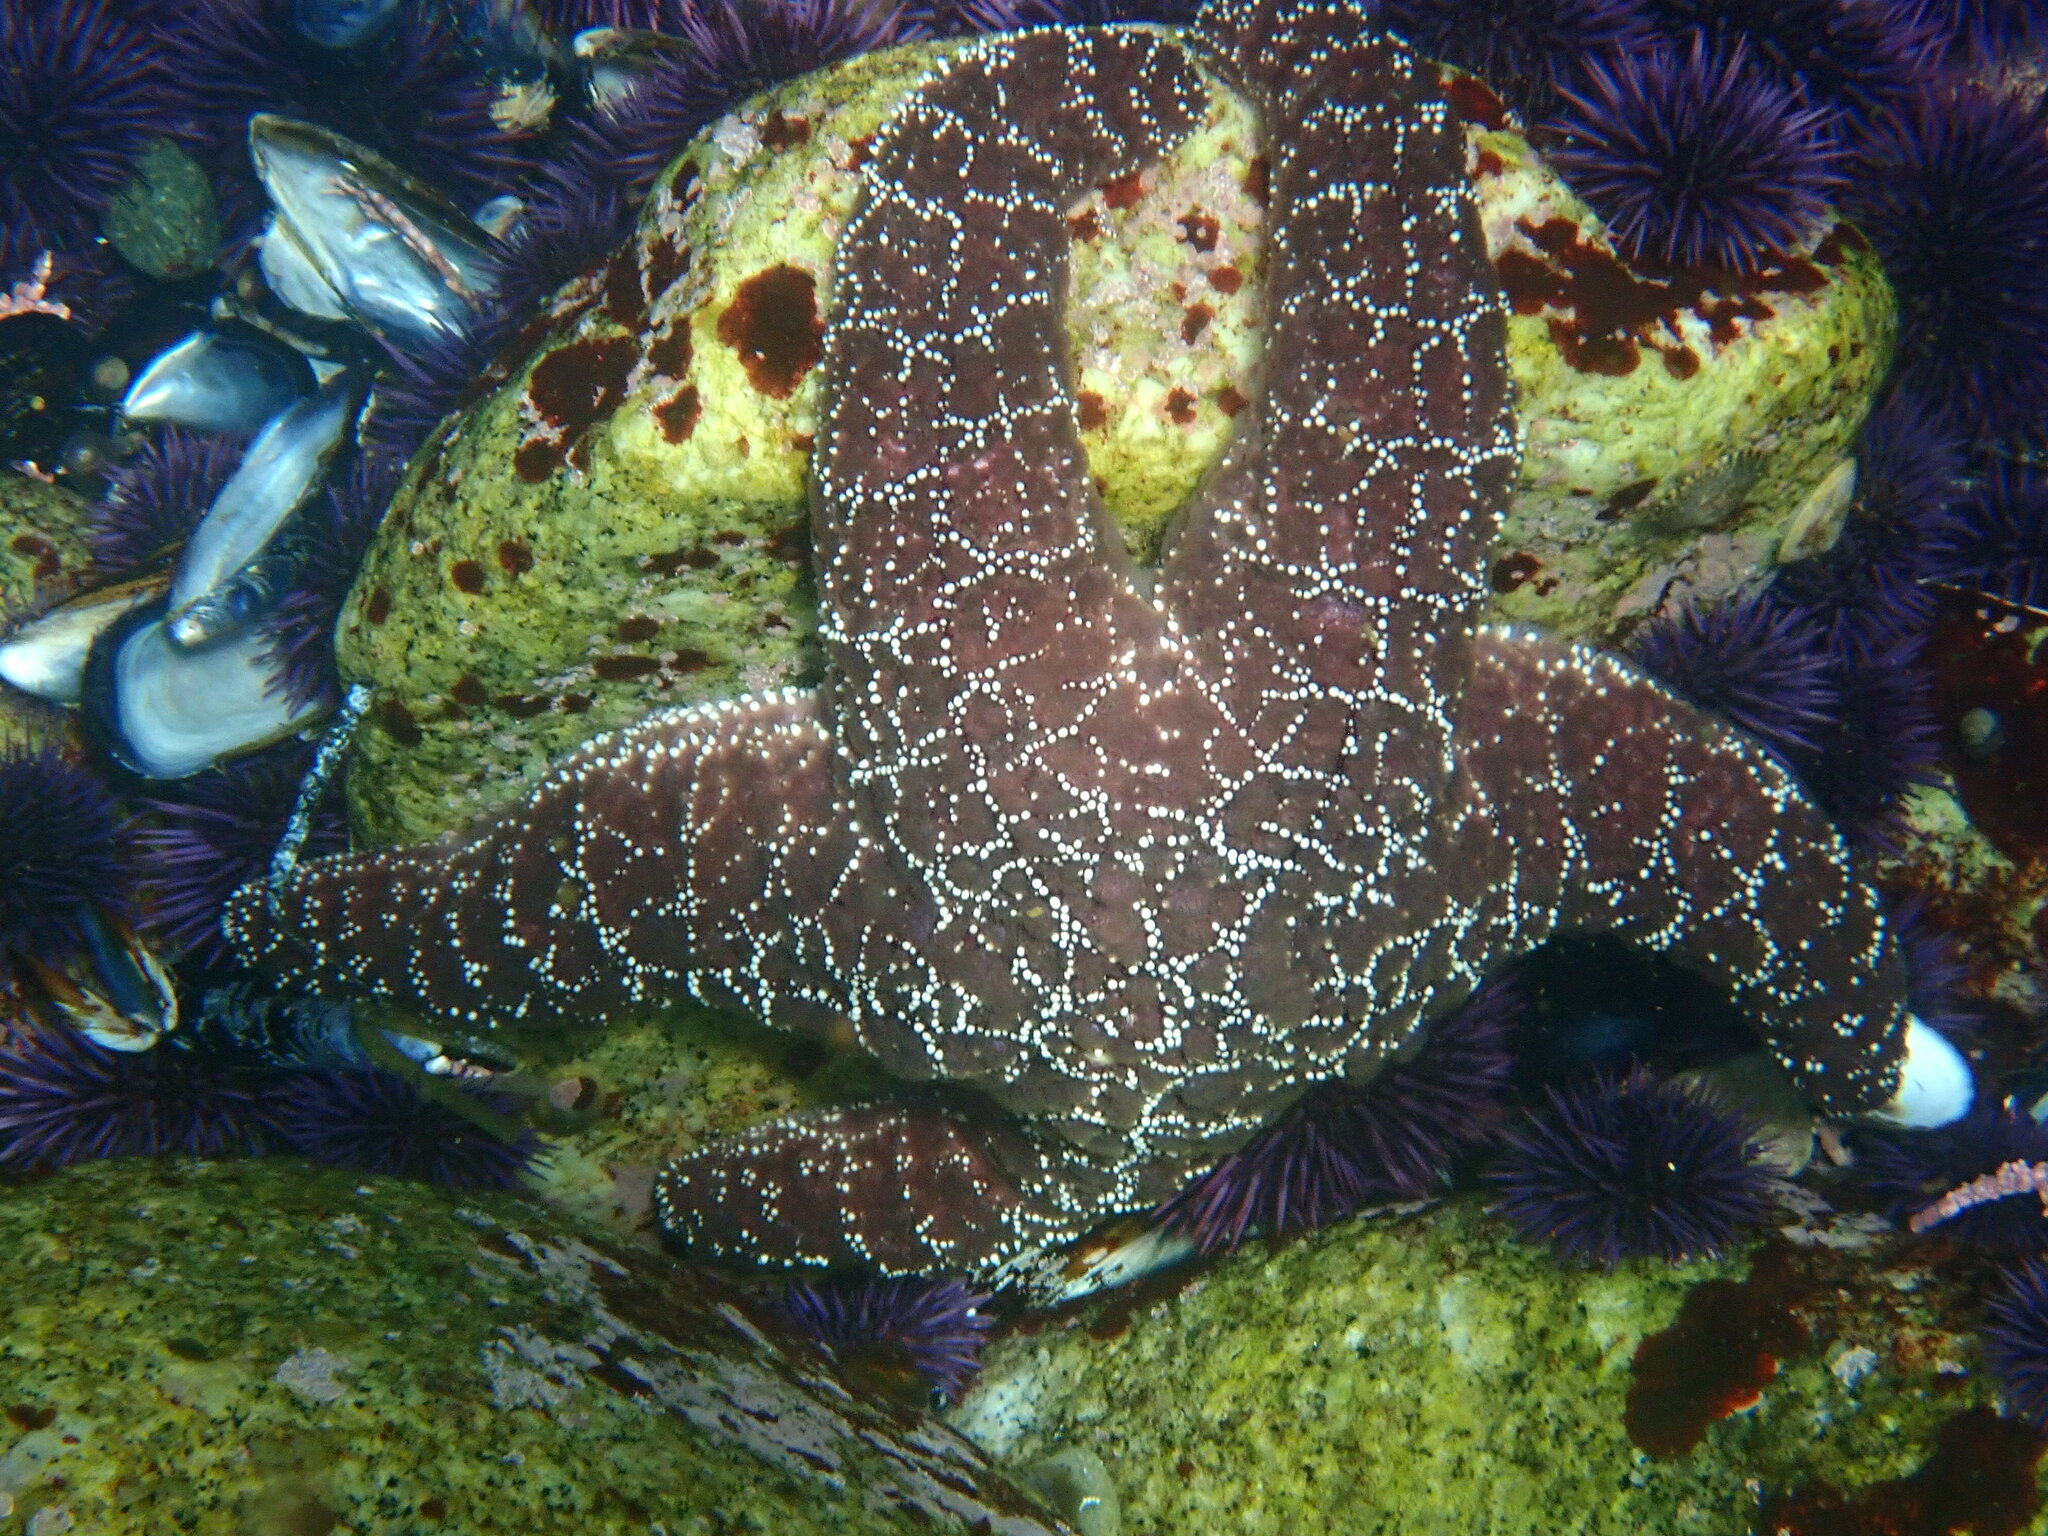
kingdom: Animalia
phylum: Echinodermata
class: Asteroidea
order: Forcipulatida
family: Asteriidae
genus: Pisaster
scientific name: Pisaster ochraceus
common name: Ochre stars
